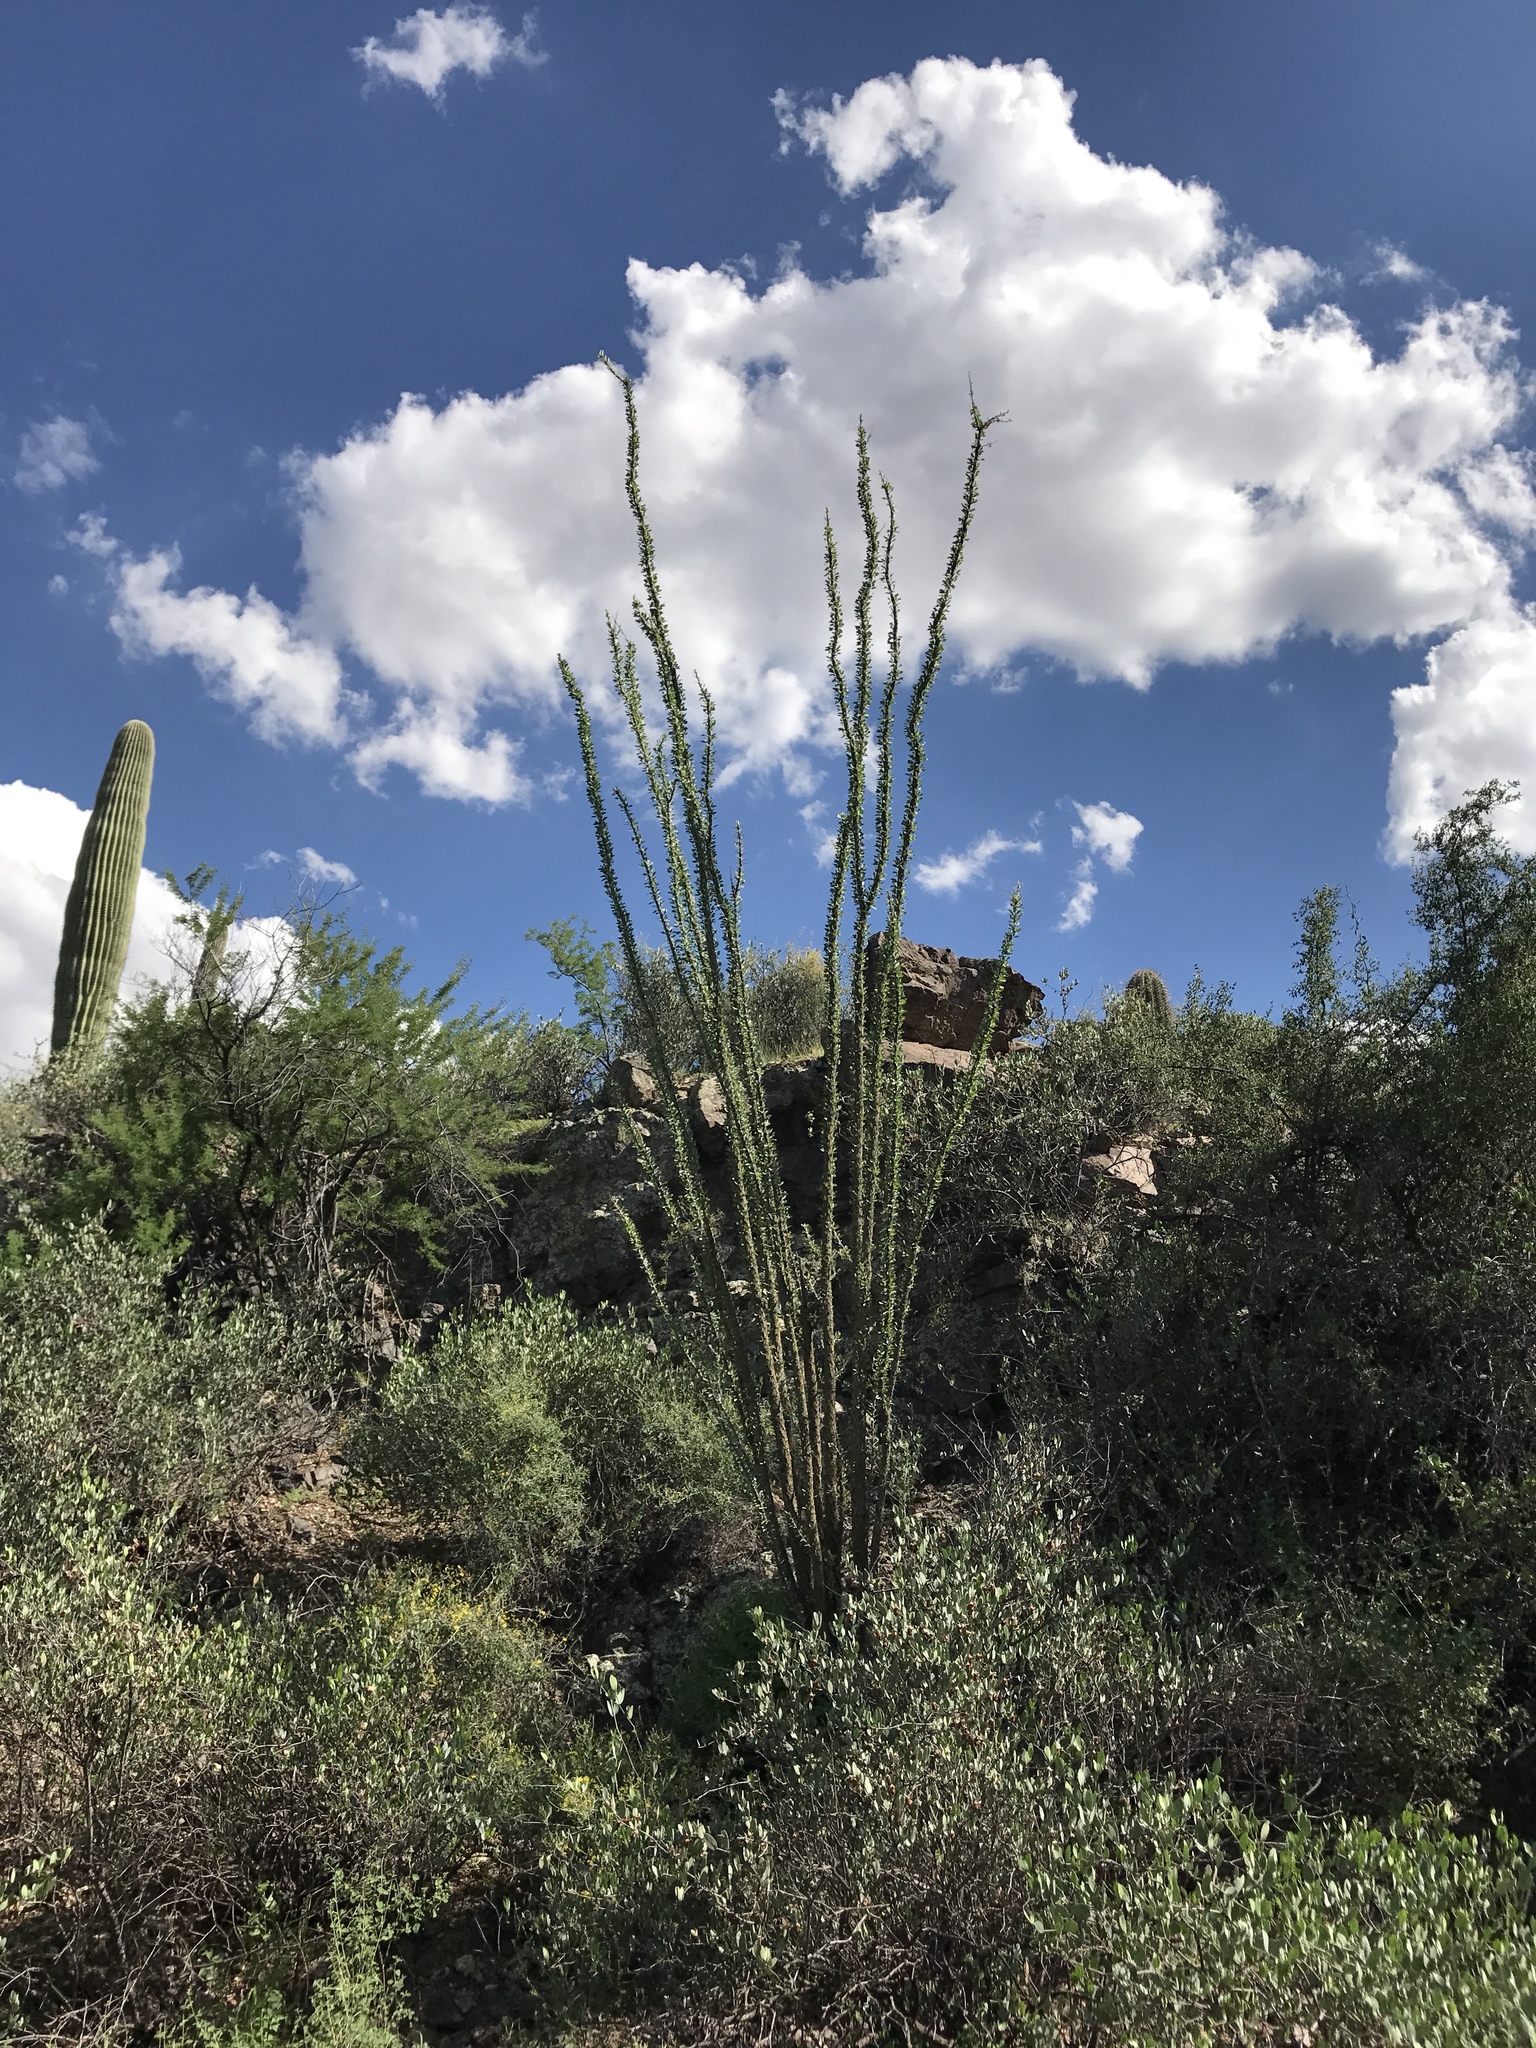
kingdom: Plantae
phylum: Tracheophyta
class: Magnoliopsida
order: Ericales
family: Fouquieriaceae
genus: Fouquieria
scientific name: Fouquieria splendens
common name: Vine-cactus
